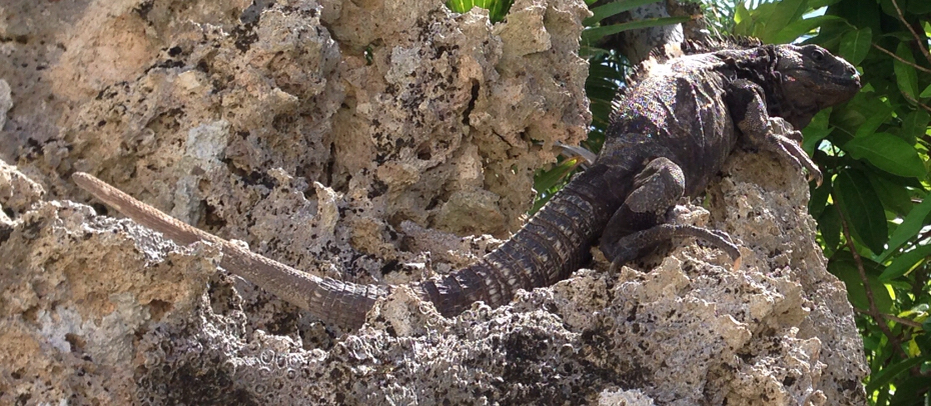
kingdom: Animalia
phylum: Chordata
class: Squamata
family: Iguanidae
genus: Ctenosaura
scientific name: Ctenosaura oedirhina
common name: Roatan spiny-tailed iguana
